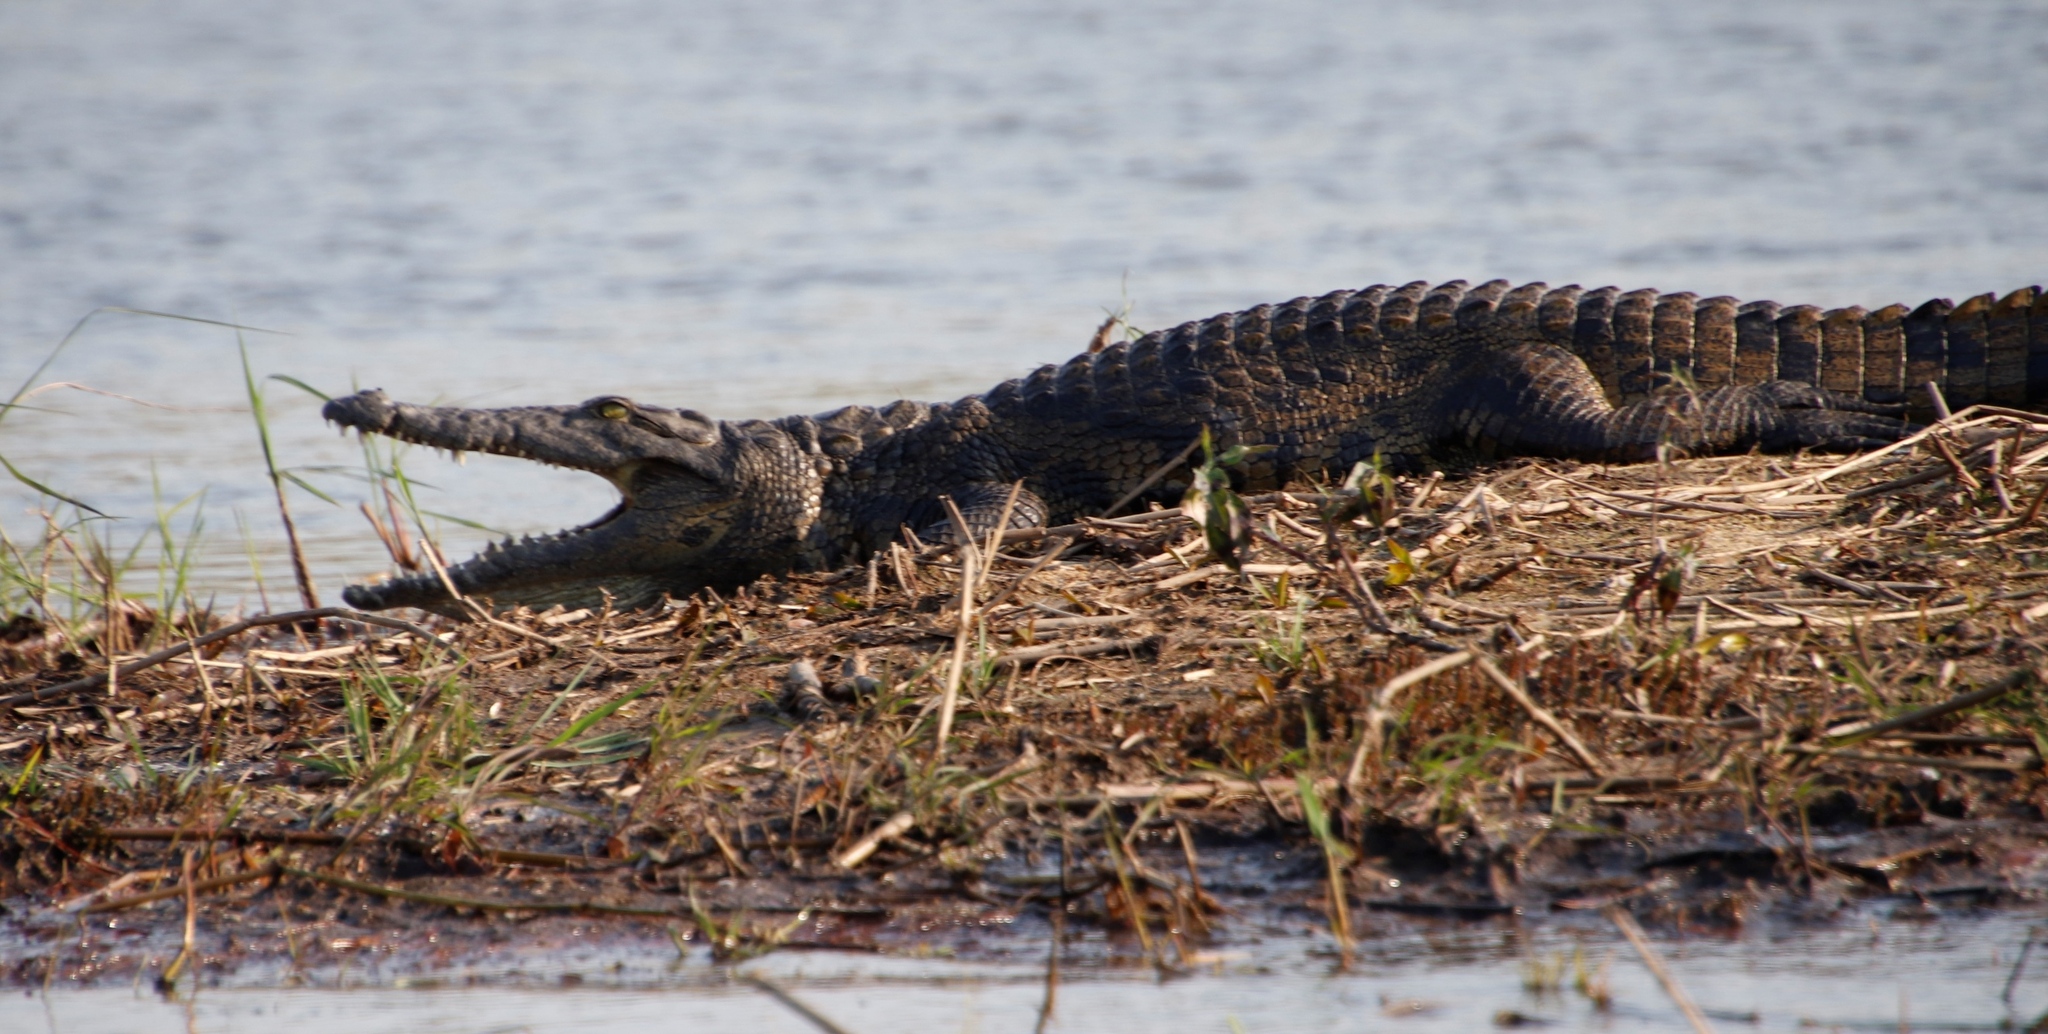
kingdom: Animalia
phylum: Chordata
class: Crocodylia
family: Crocodylidae
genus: Crocodylus
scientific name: Crocodylus niloticus
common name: Nile crocodile
